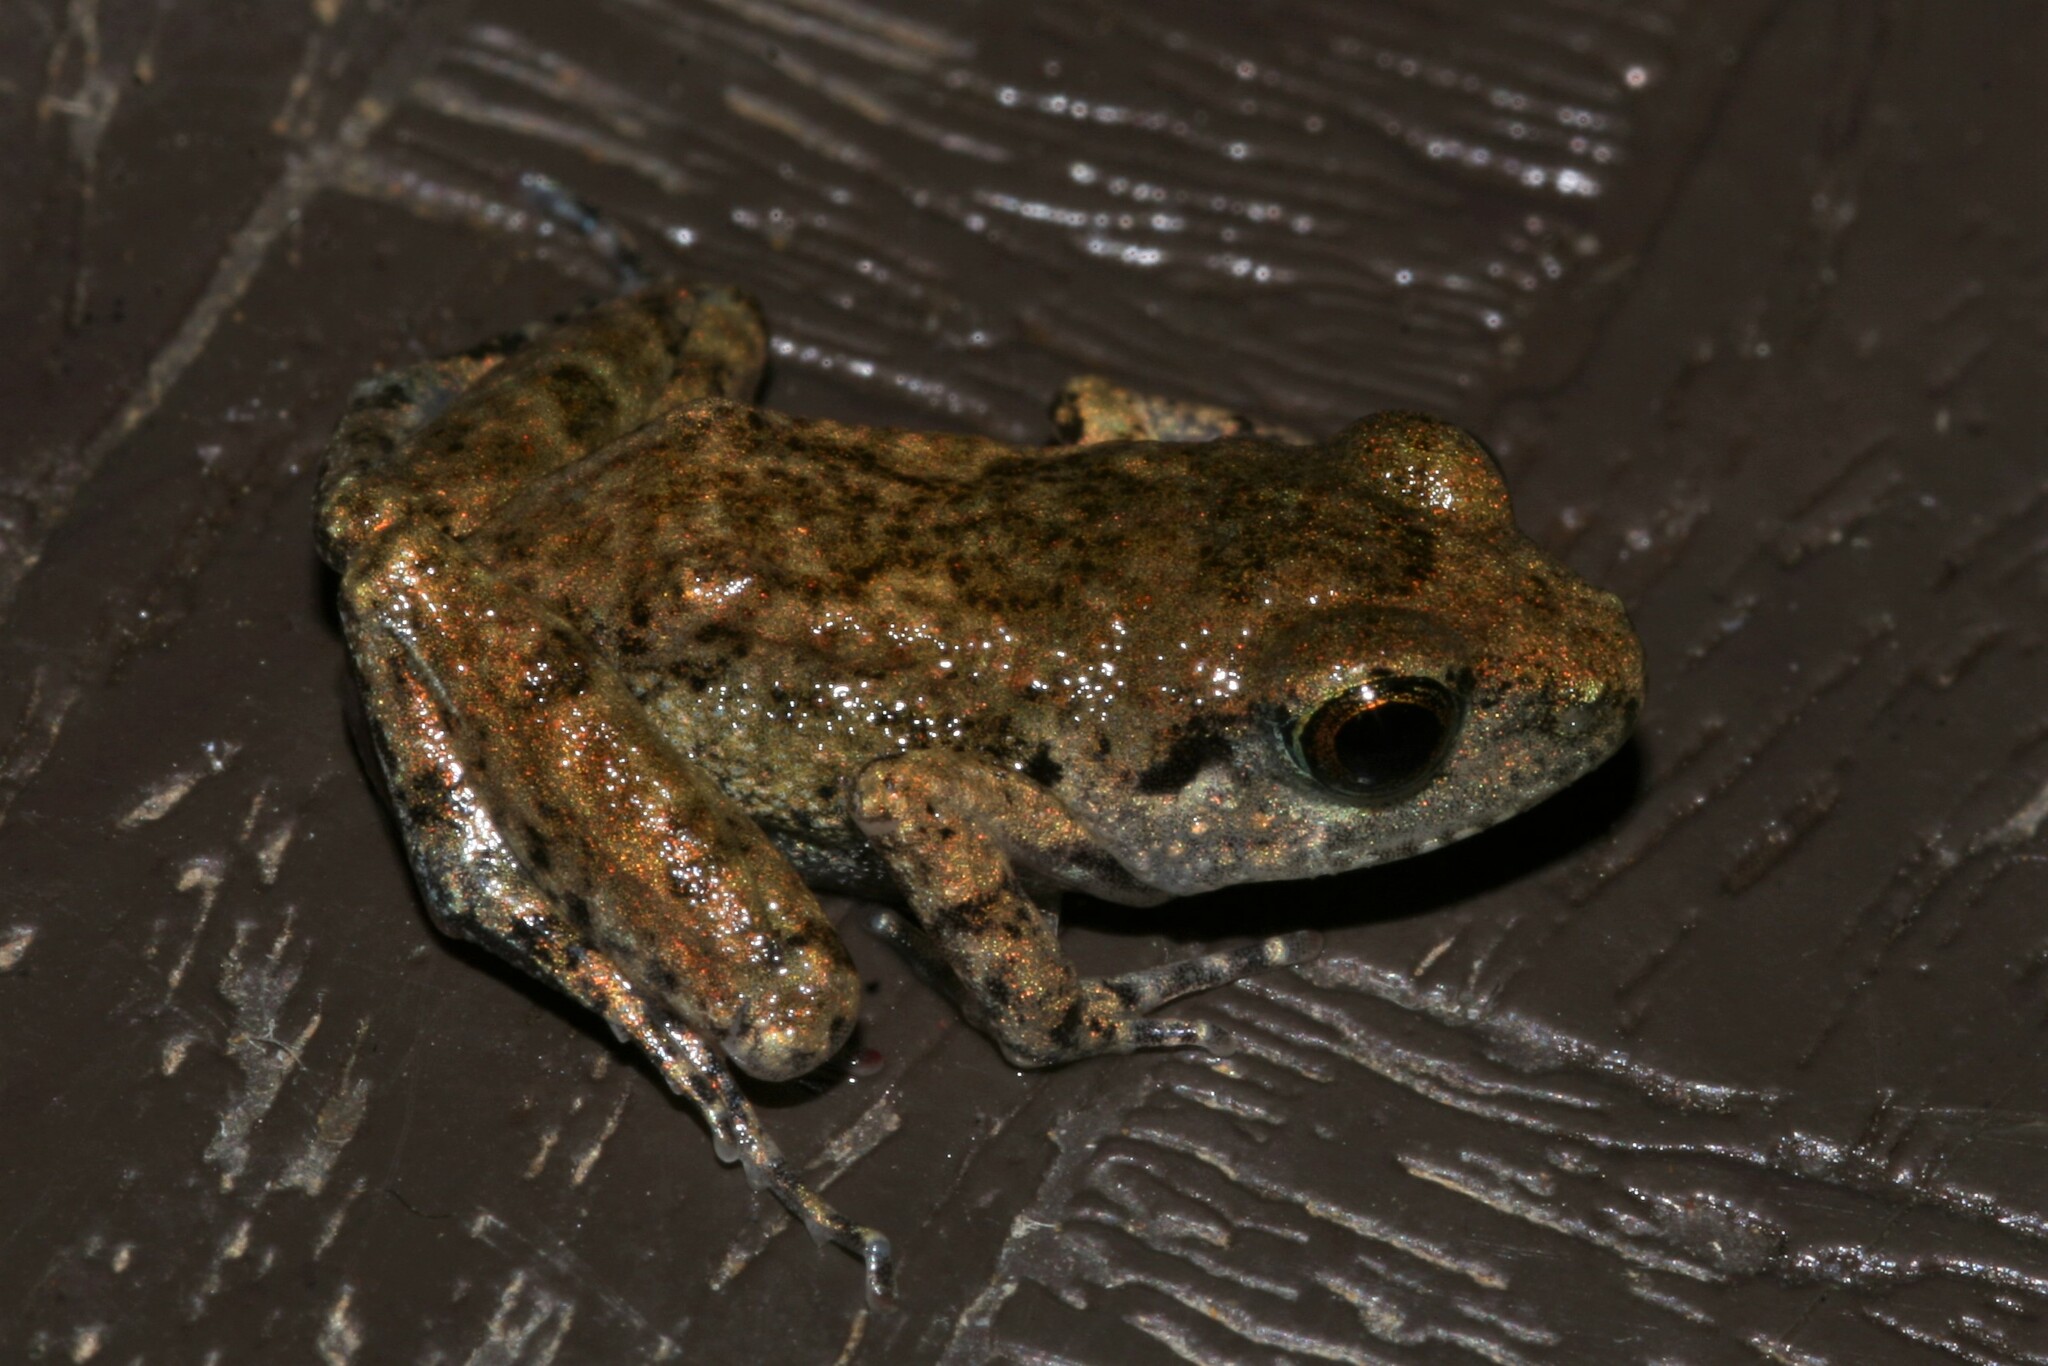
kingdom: Animalia
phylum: Chordata
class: Amphibia
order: Anura
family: Arthroleptidae
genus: Arthroleptis
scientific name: Arthroleptis poecilonotus
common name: West african screeching frog
